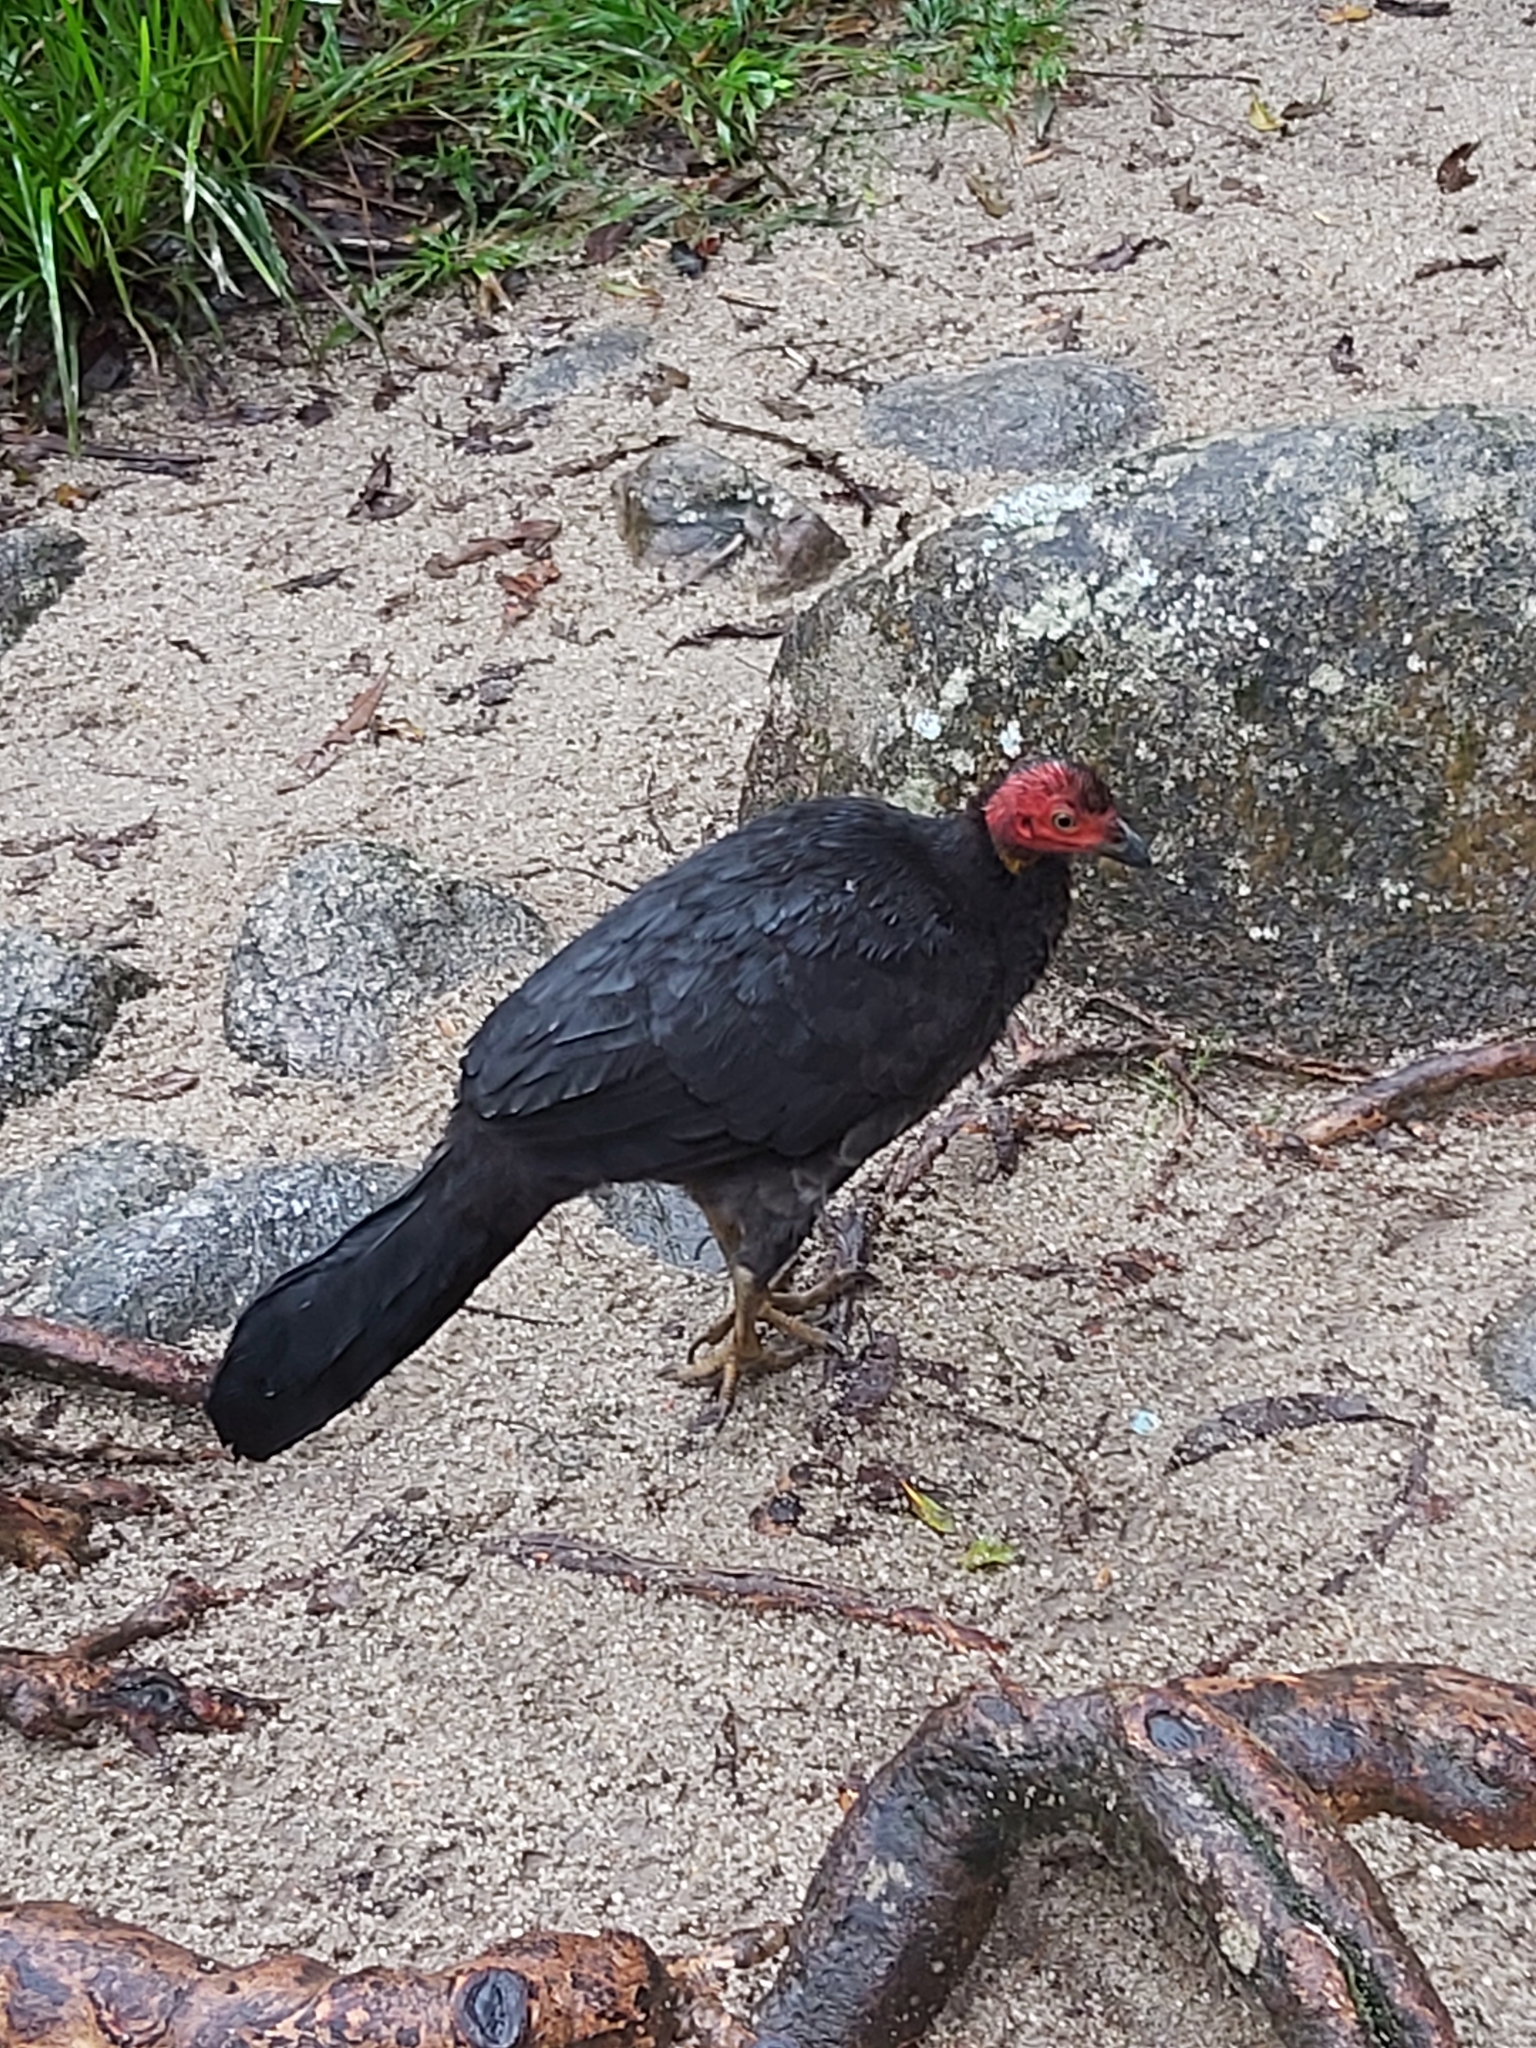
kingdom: Animalia
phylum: Chordata
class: Aves
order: Galliformes
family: Megapodiidae
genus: Alectura
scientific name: Alectura lathami
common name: Australian brushturkey
